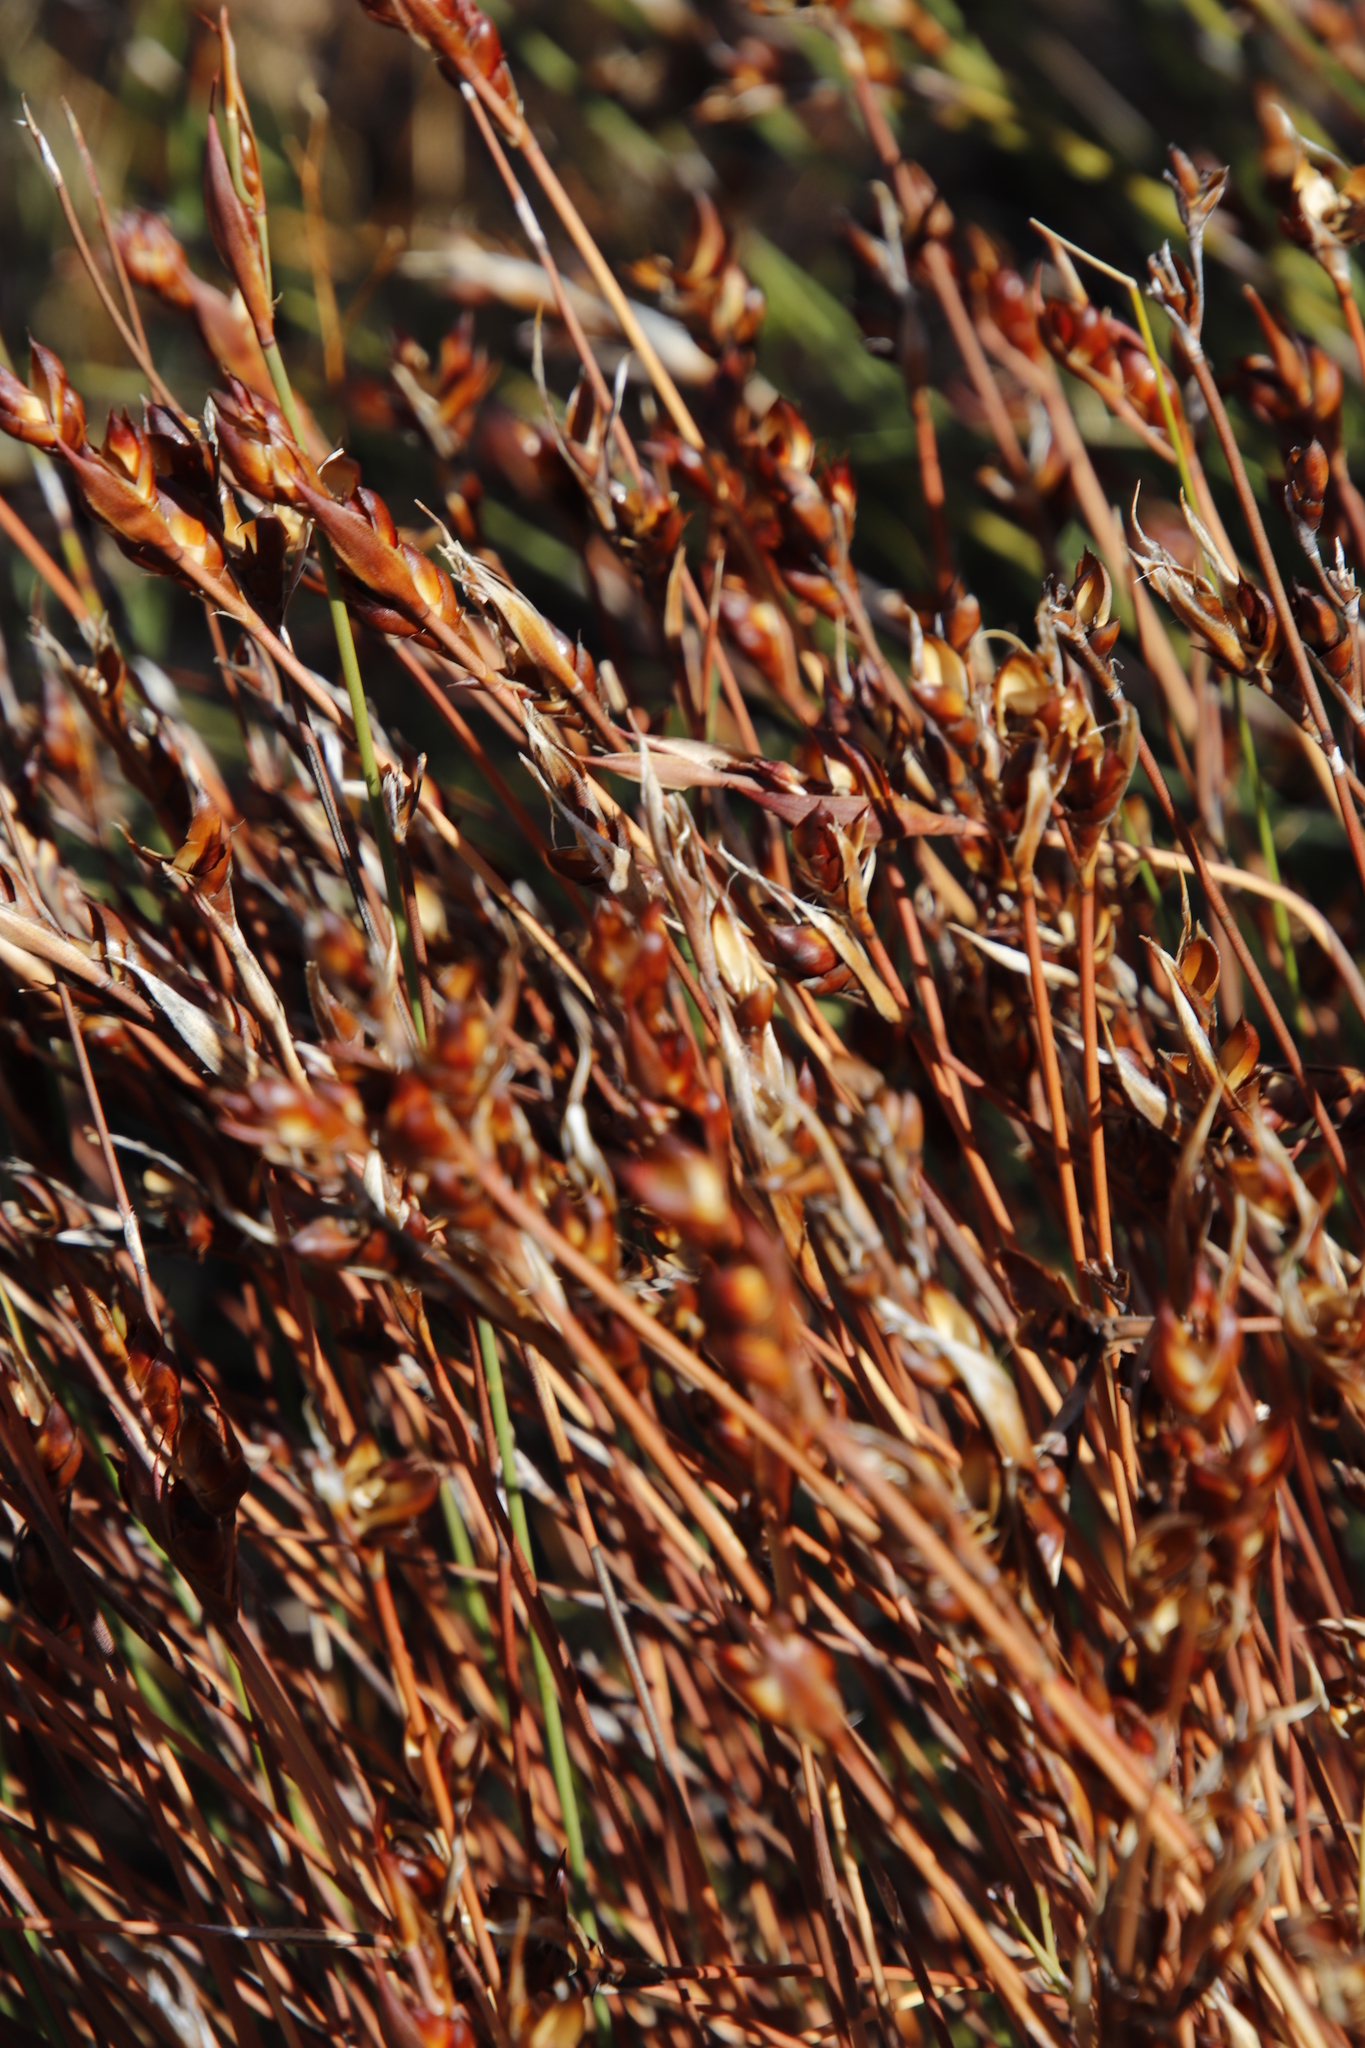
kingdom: Plantae
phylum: Tracheophyta
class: Liliopsida
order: Poales
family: Restionaceae
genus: Cannomois
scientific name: Cannomois parviflora
